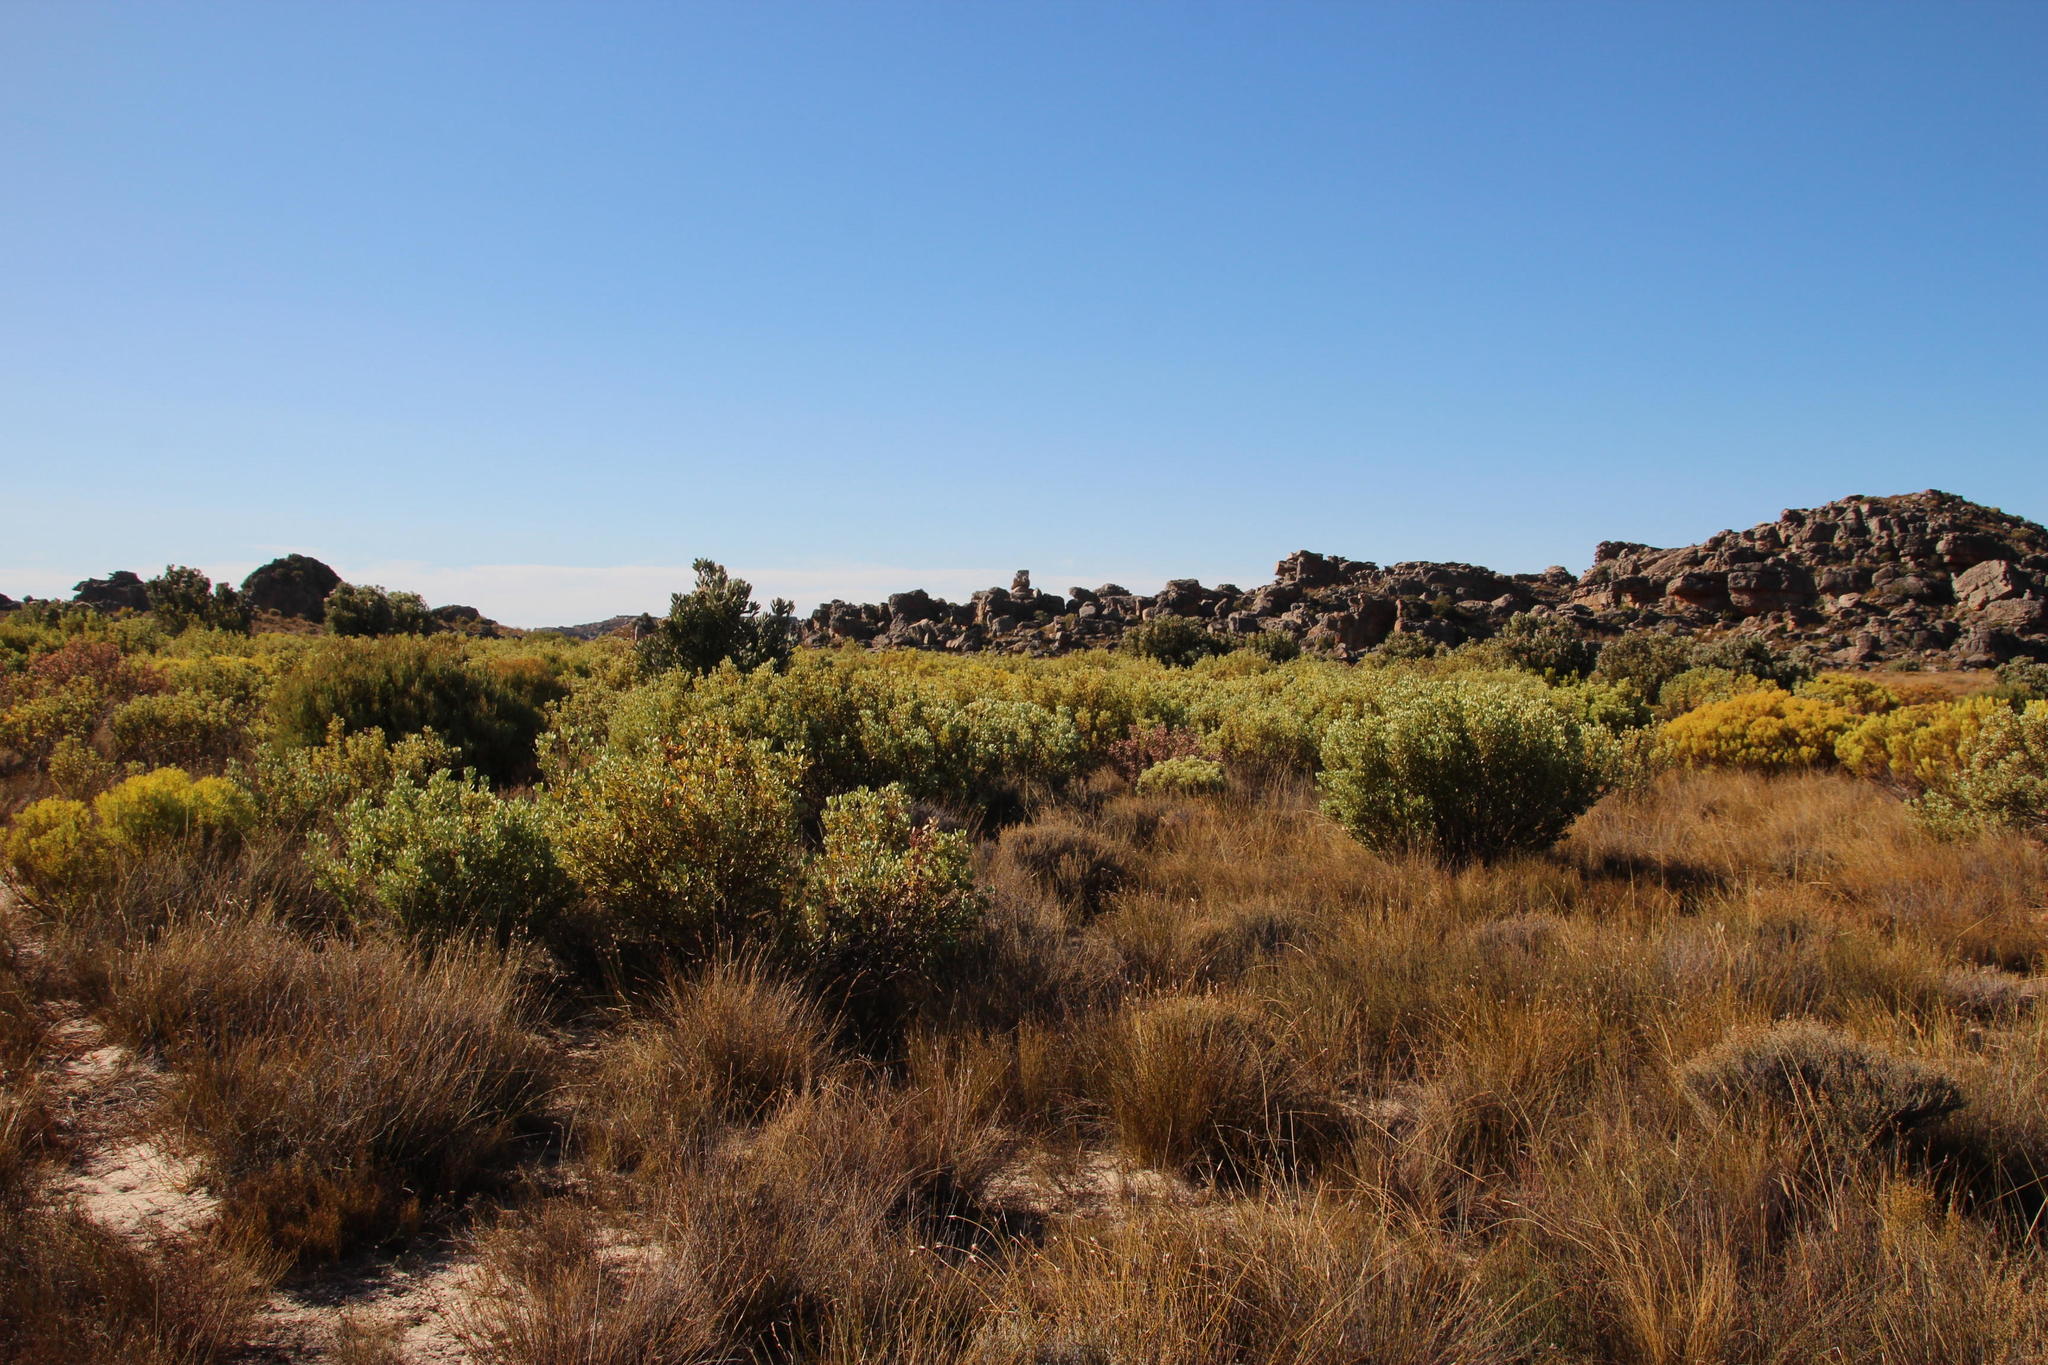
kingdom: Plantae
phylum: Tracheophyta
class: Magnoliopsida
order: Proteales
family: Proteaceae
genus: Leucadendron
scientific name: Leucadendron loranthifolium
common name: Green-flower sunbush
